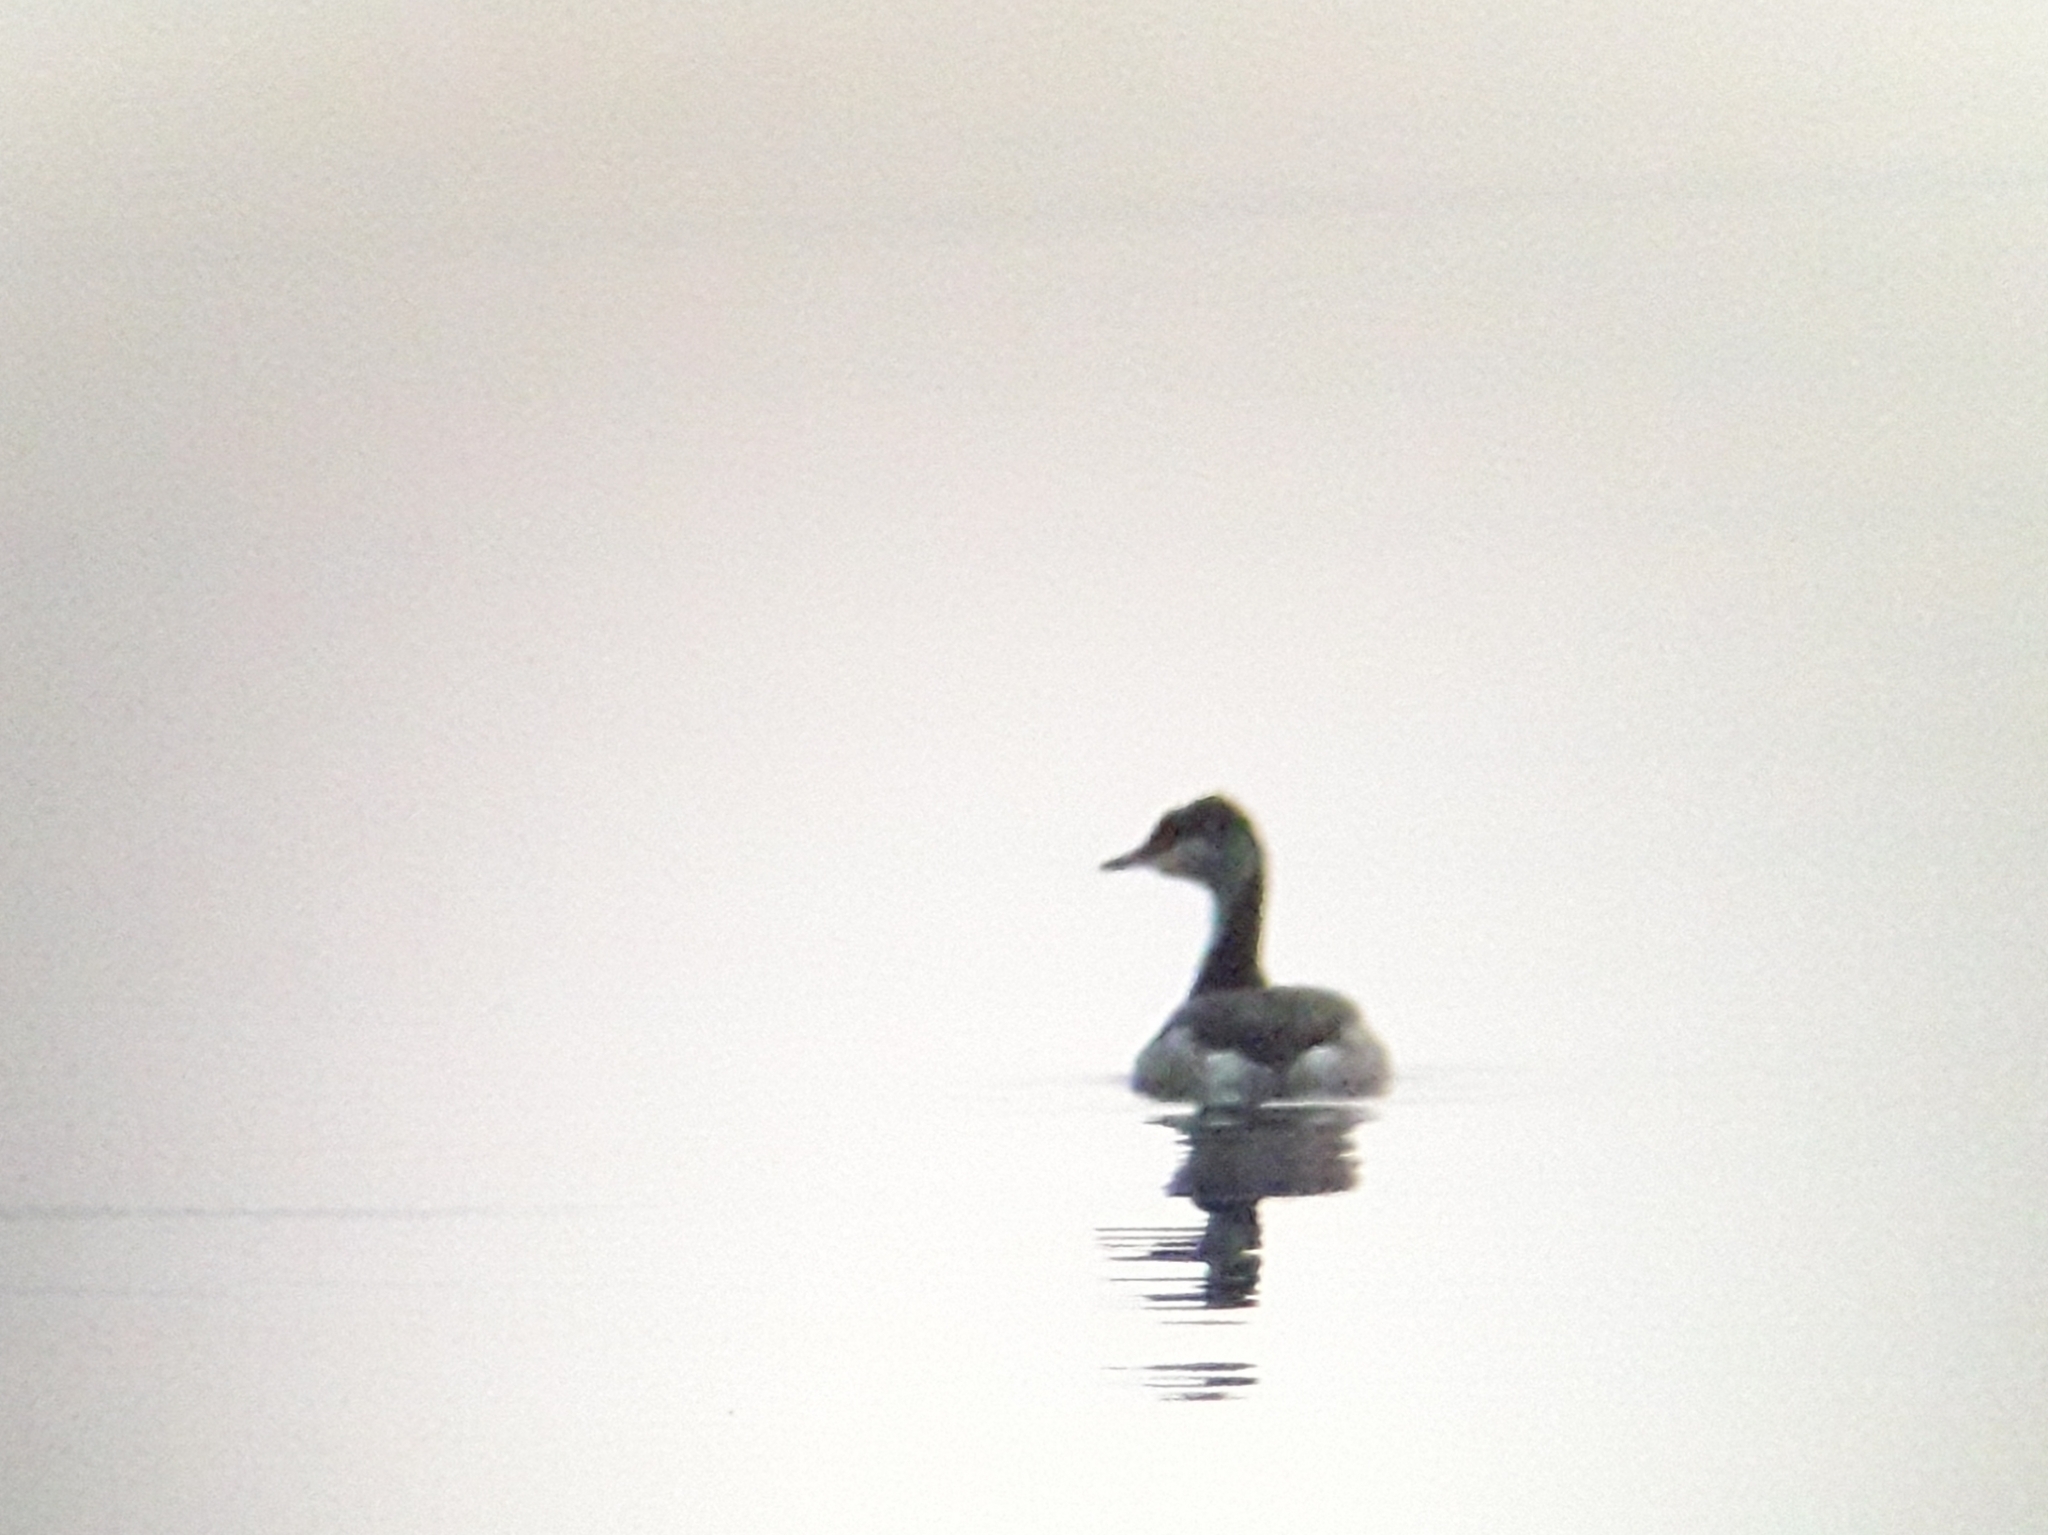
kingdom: Animalia
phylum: Chordata
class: Aves
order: Podicipediformes
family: Podicipedidae
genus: Podiceps
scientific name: Podiceps auritus
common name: Horned grebe
